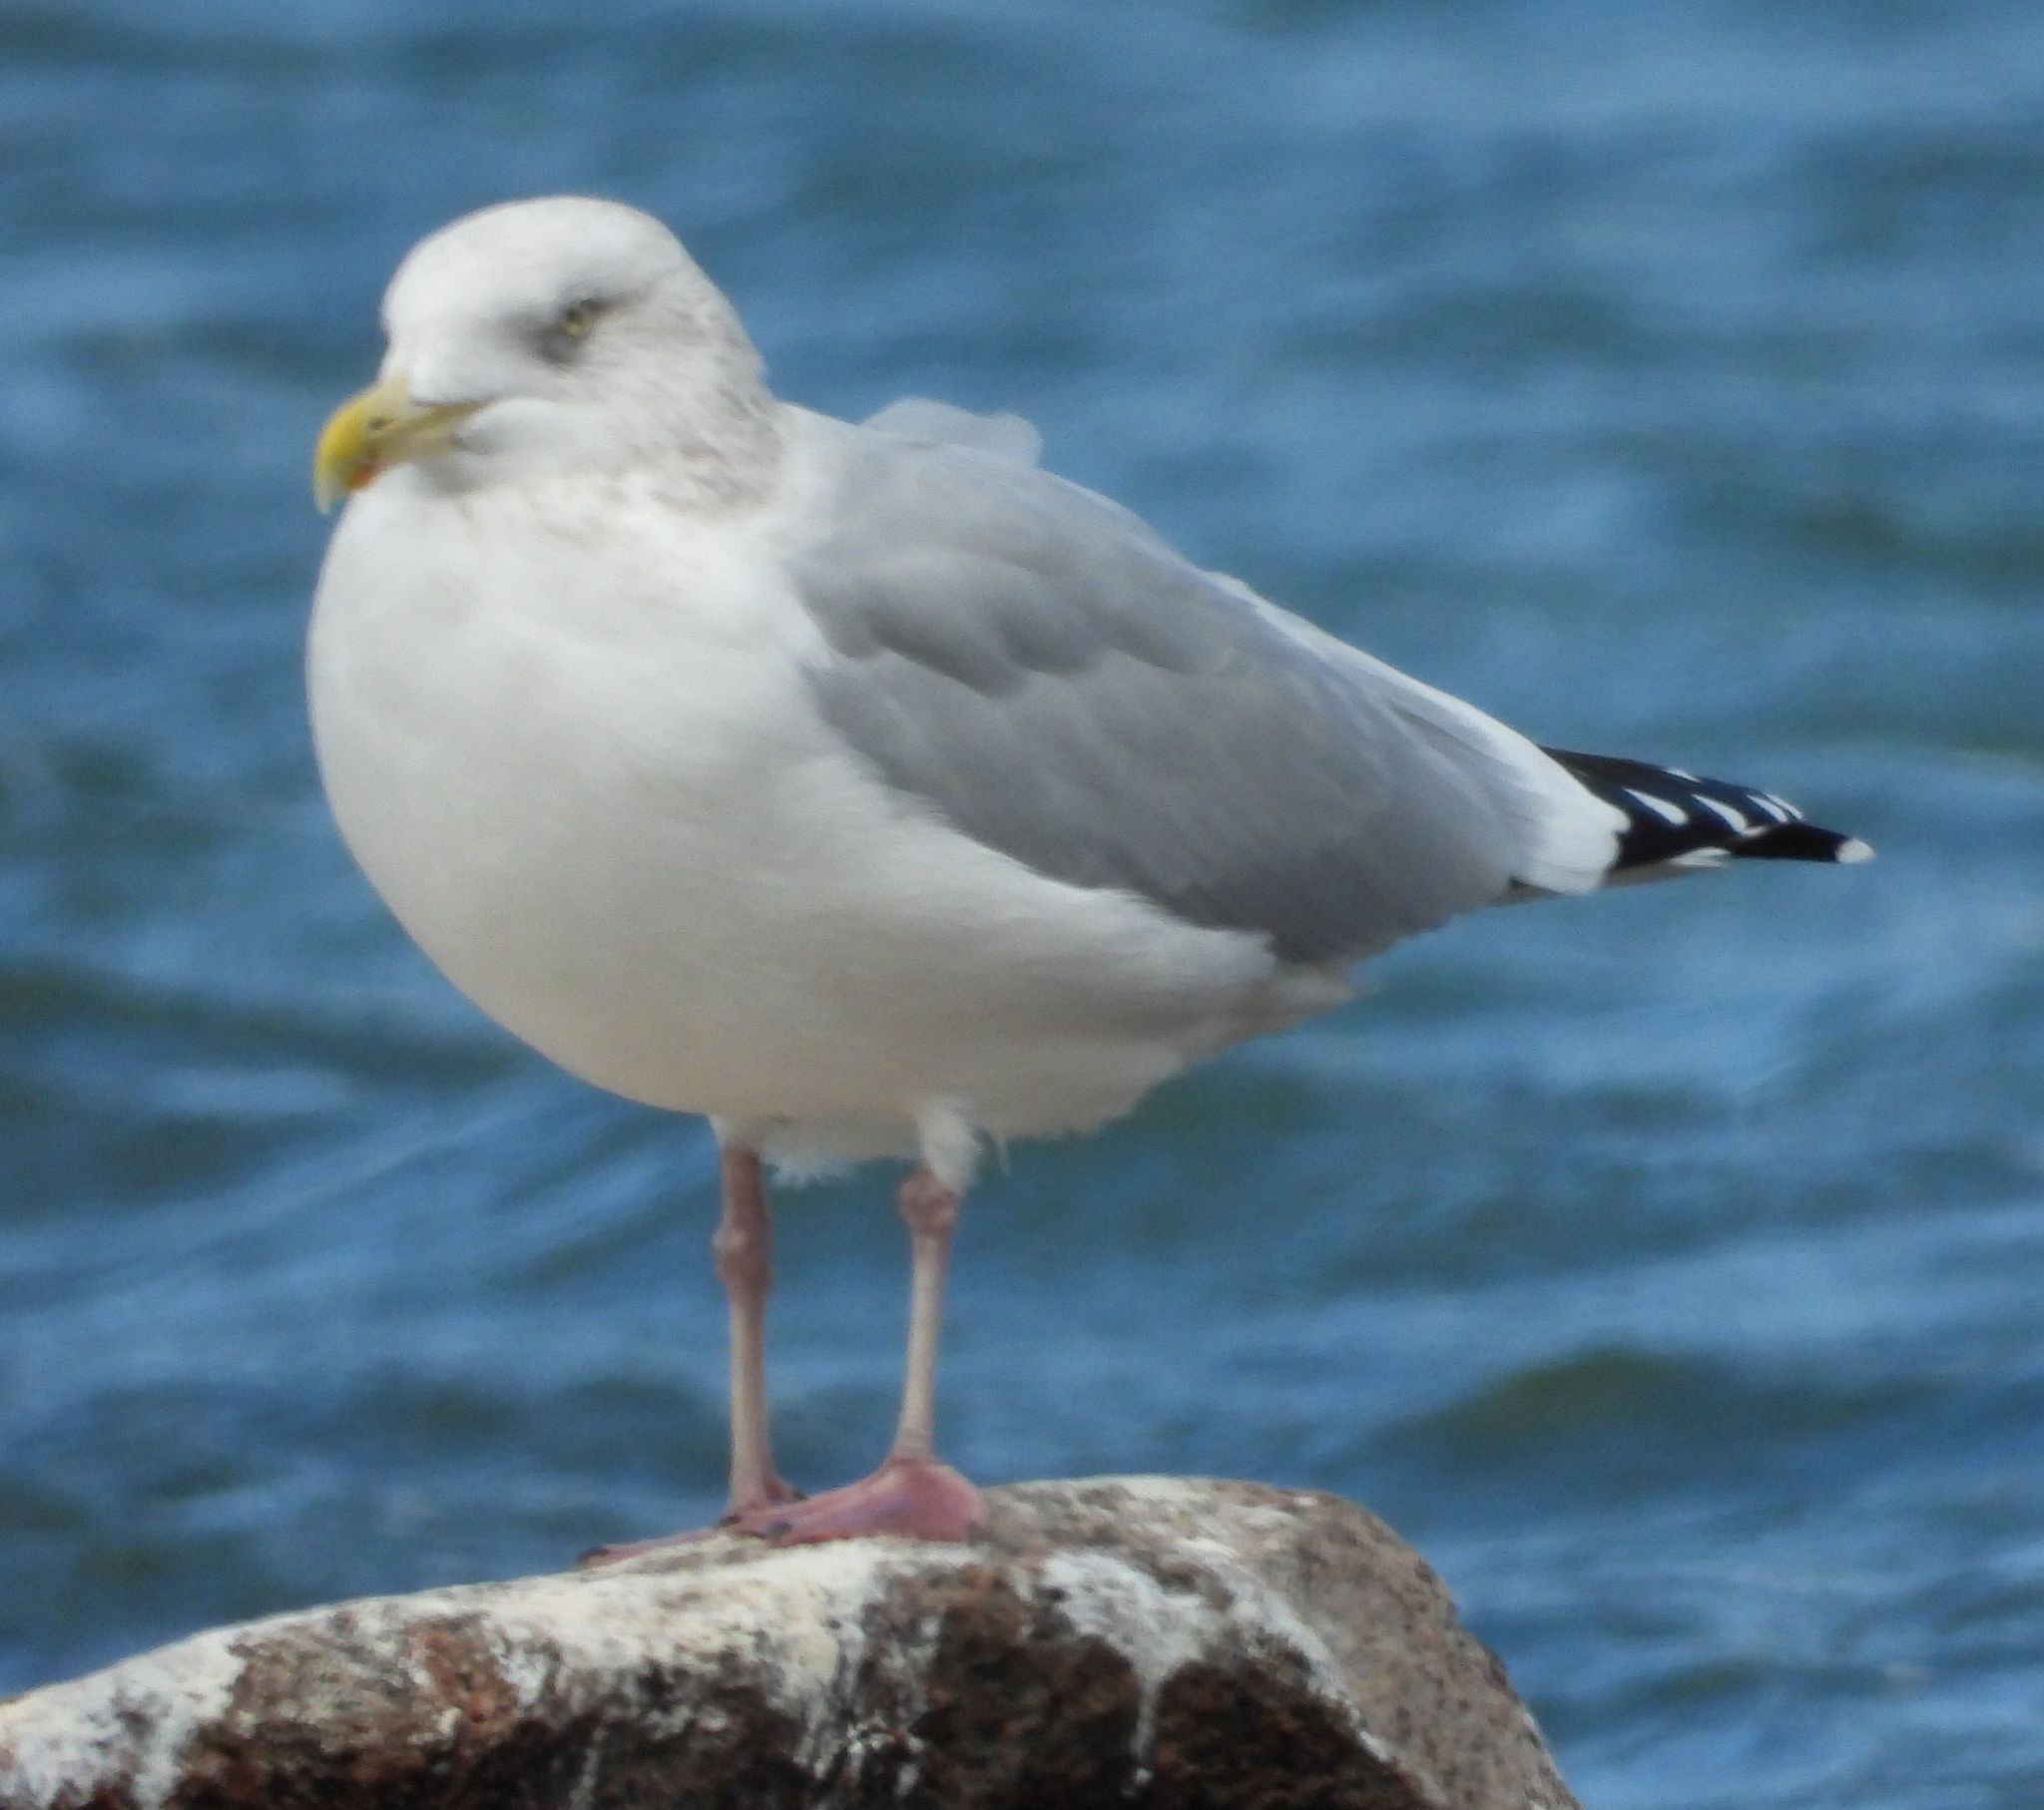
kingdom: Animalia
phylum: Chordata
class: Aves
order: Charadriiformes
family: Laridae
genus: Larus
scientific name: Larus argentatus
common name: Herring gull
